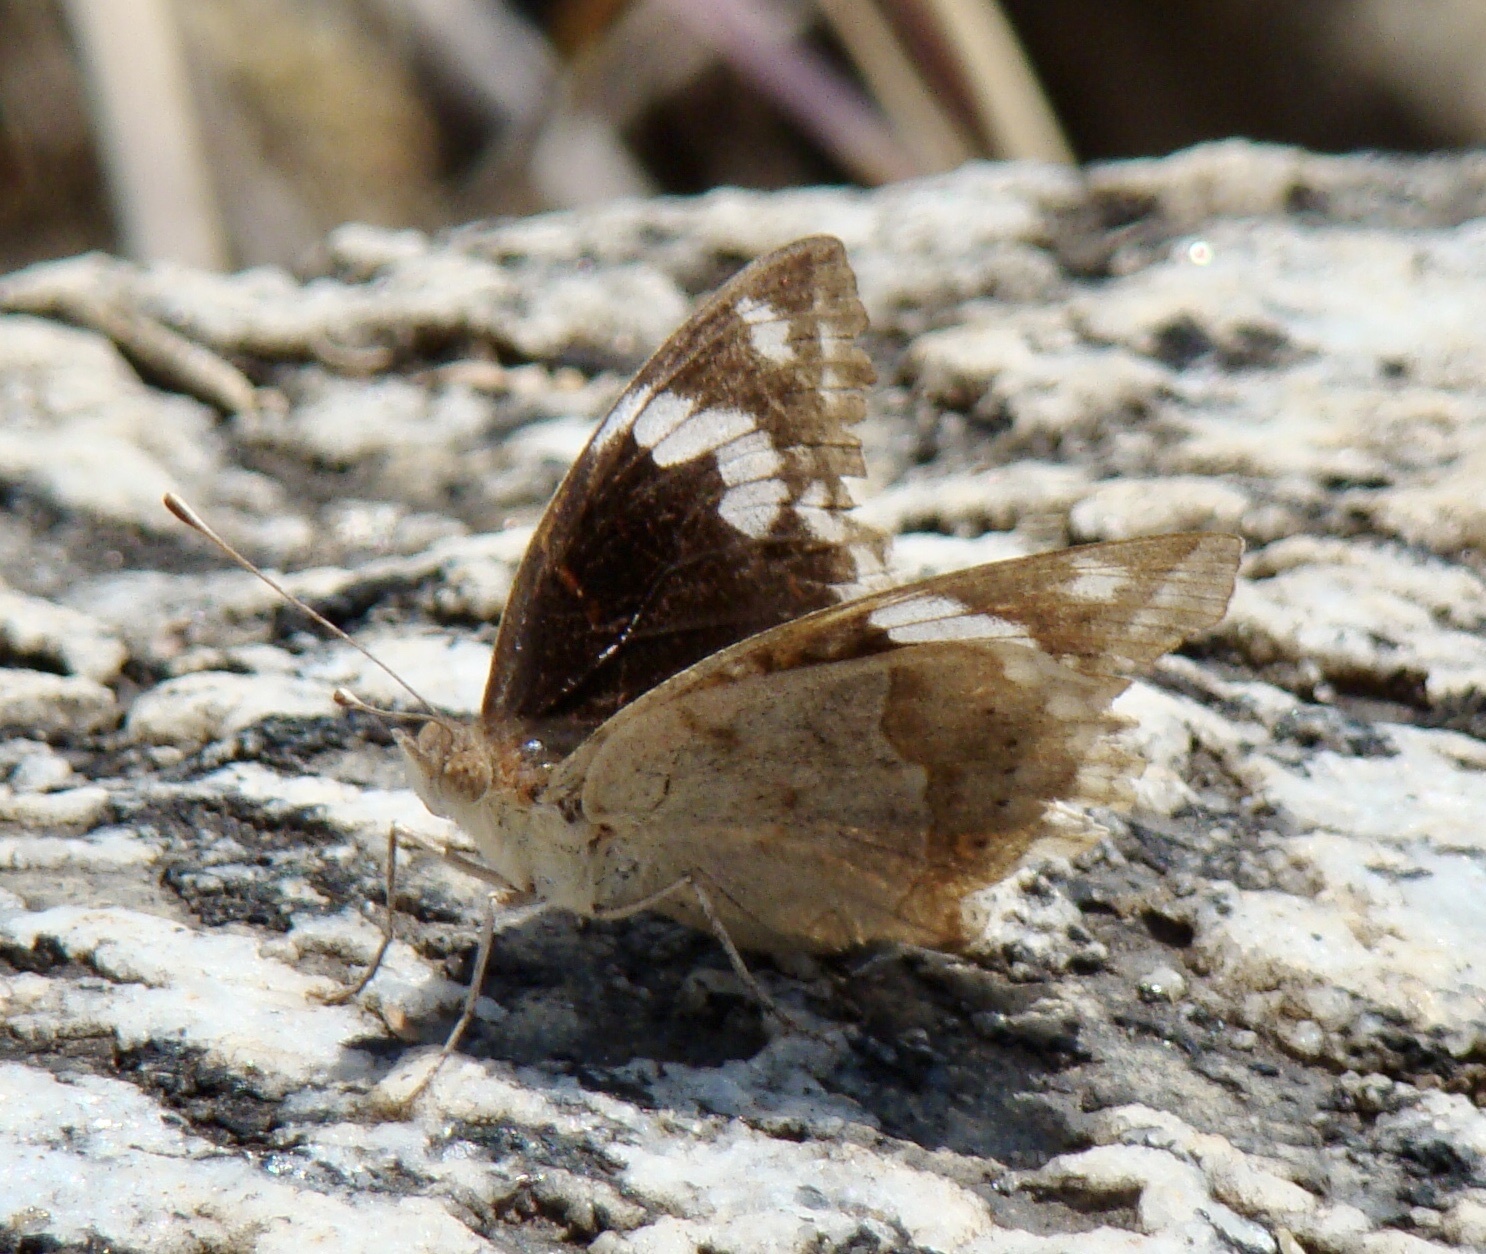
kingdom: Animalia
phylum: Arthropoda
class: Insecta
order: Lepidoptera
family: Nymphalidae
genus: Junonia
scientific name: Junonia oenone
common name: Dark blue pansy
